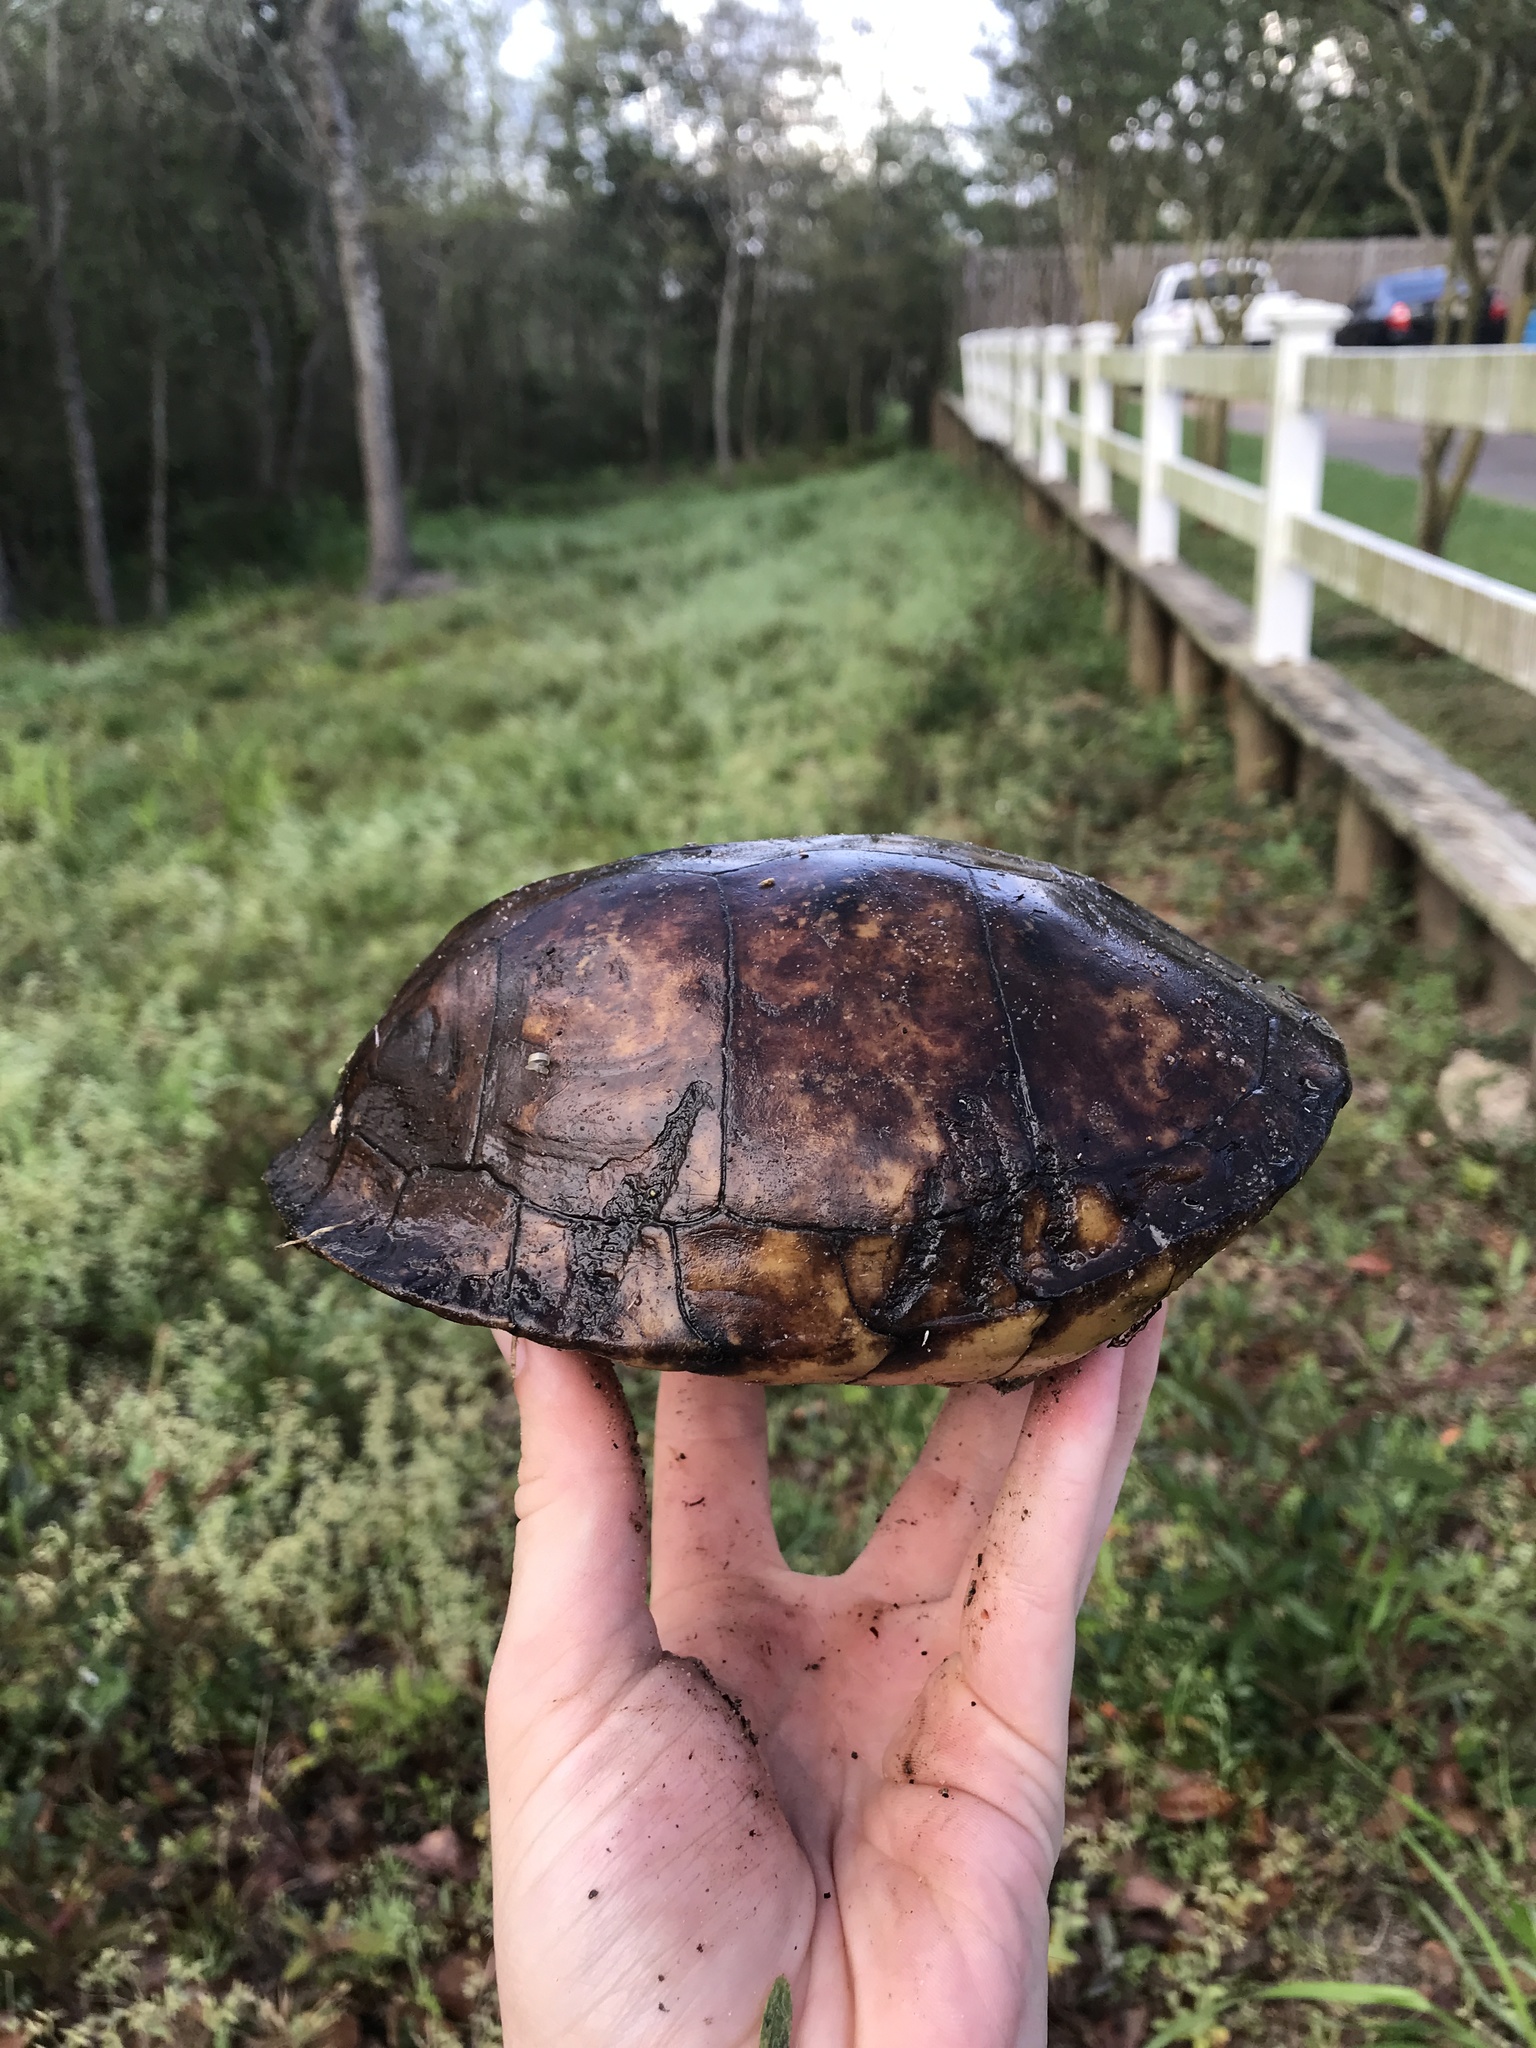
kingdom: Animalia
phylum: Chordata
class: Testudines
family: Emydidae
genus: Terrapene
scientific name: Terrapene carolina
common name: Common box turtle
